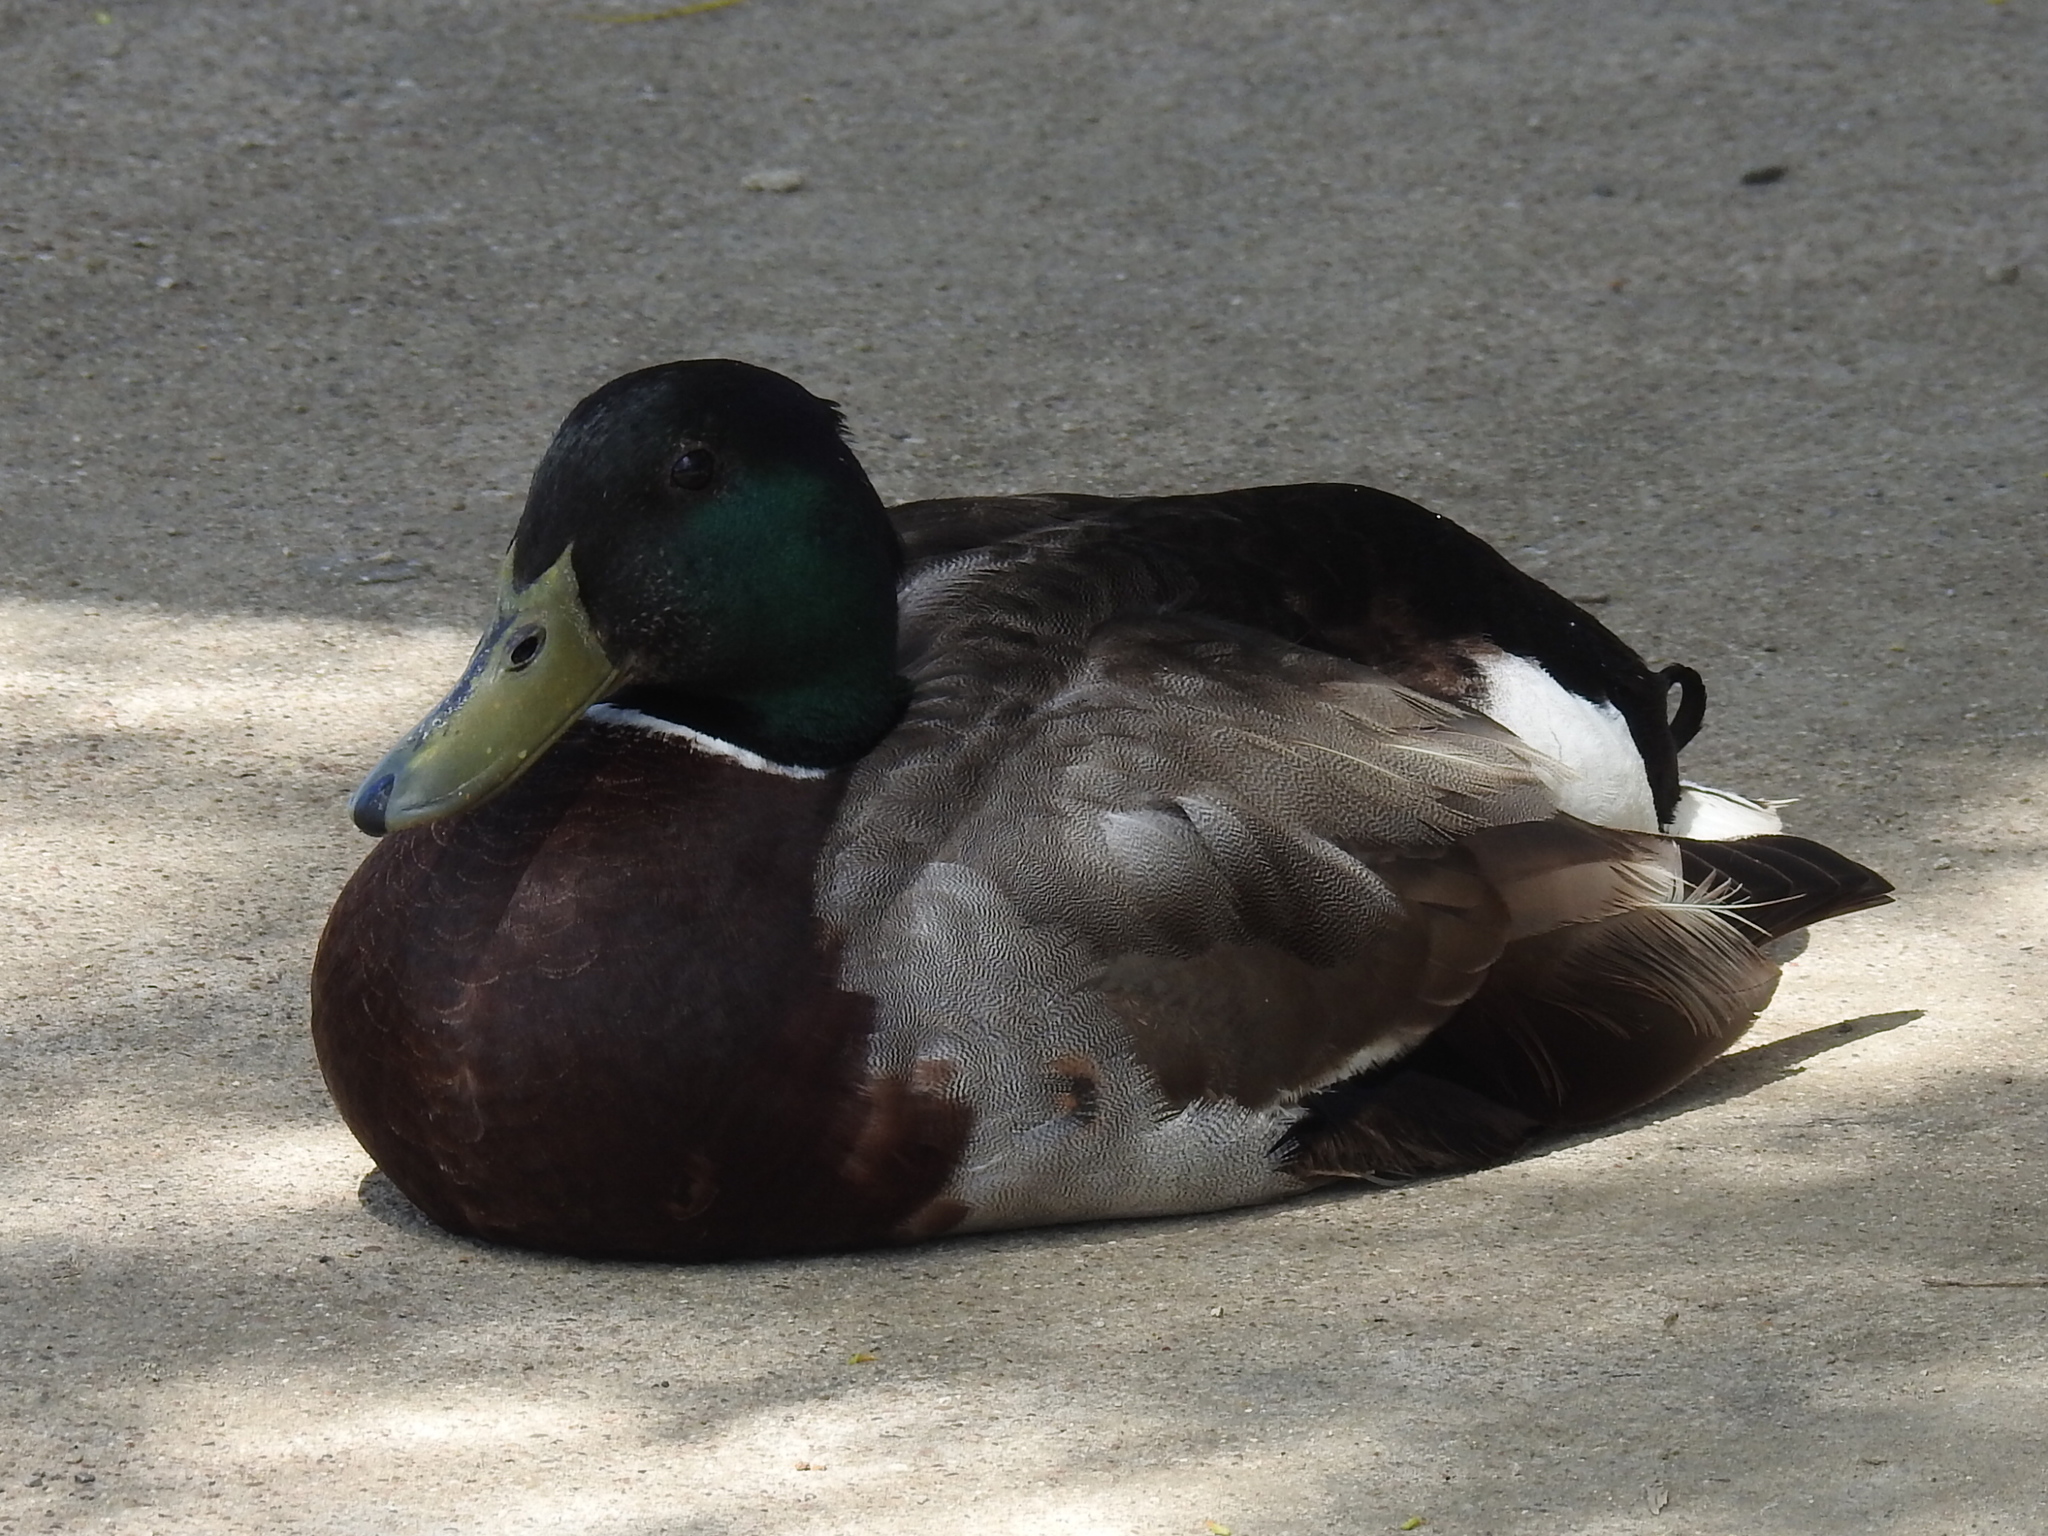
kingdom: Animalia
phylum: Chordata
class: Aves
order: Anseriformes
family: Anatidae
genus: Anas
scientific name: Anas platyrhynchos
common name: Mallard
